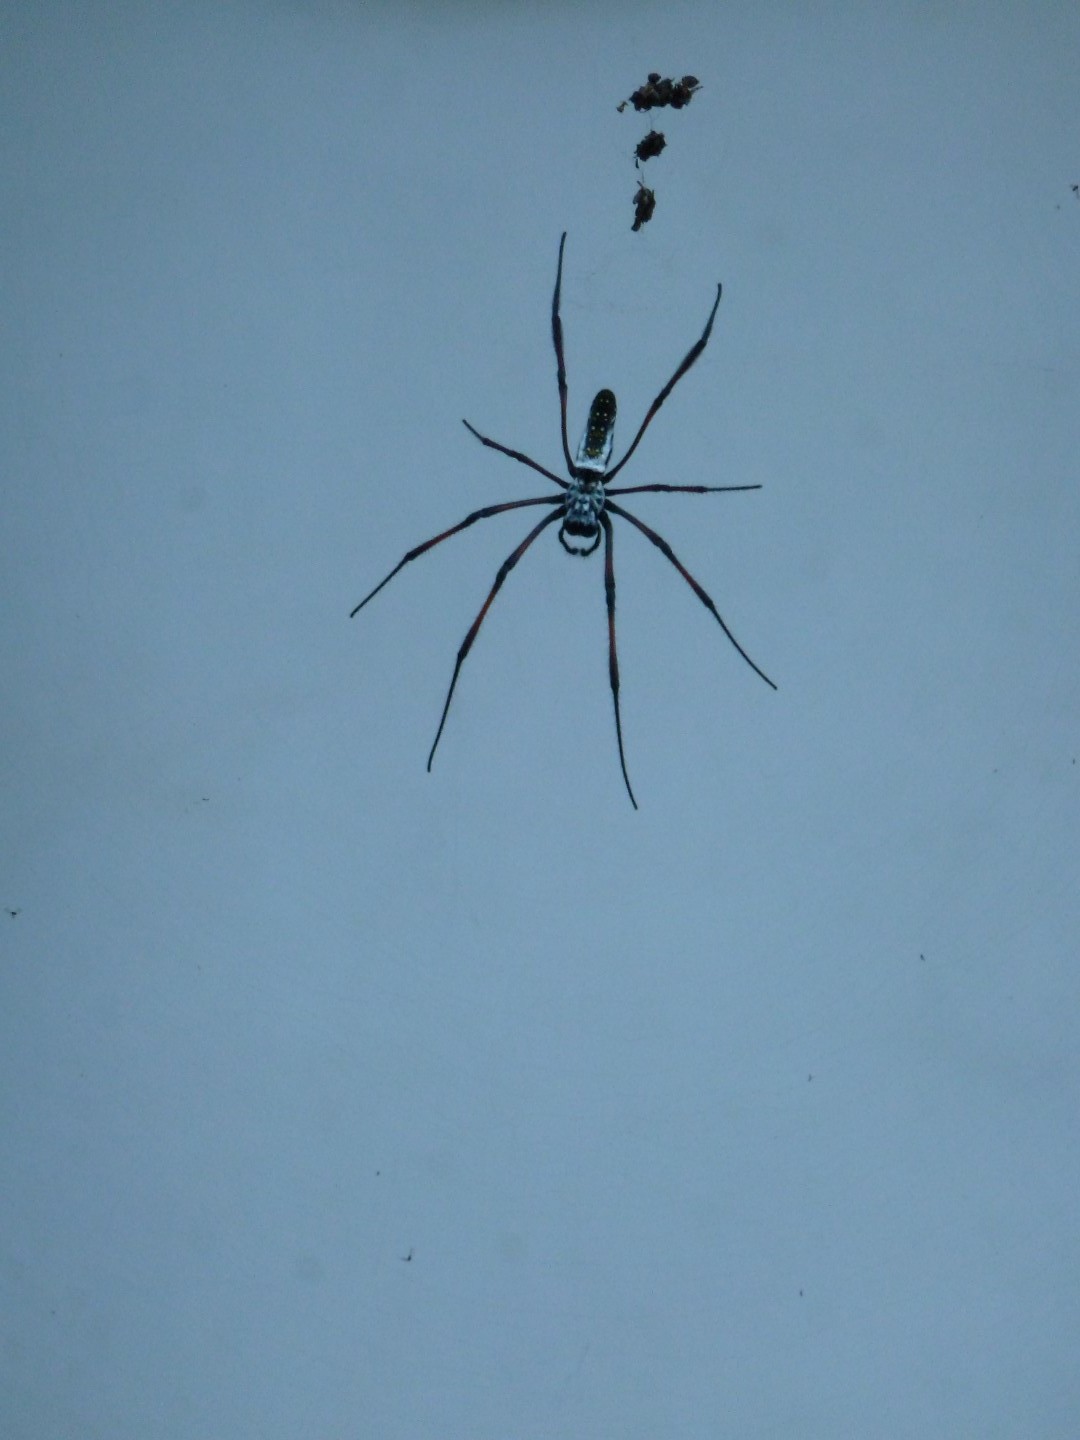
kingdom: Animalia
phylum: Arthropoda
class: Arachnida
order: Araneae
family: Araneidae
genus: Trichonephila
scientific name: Trichonephila inaurata
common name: Red-legged golden orb weaver
